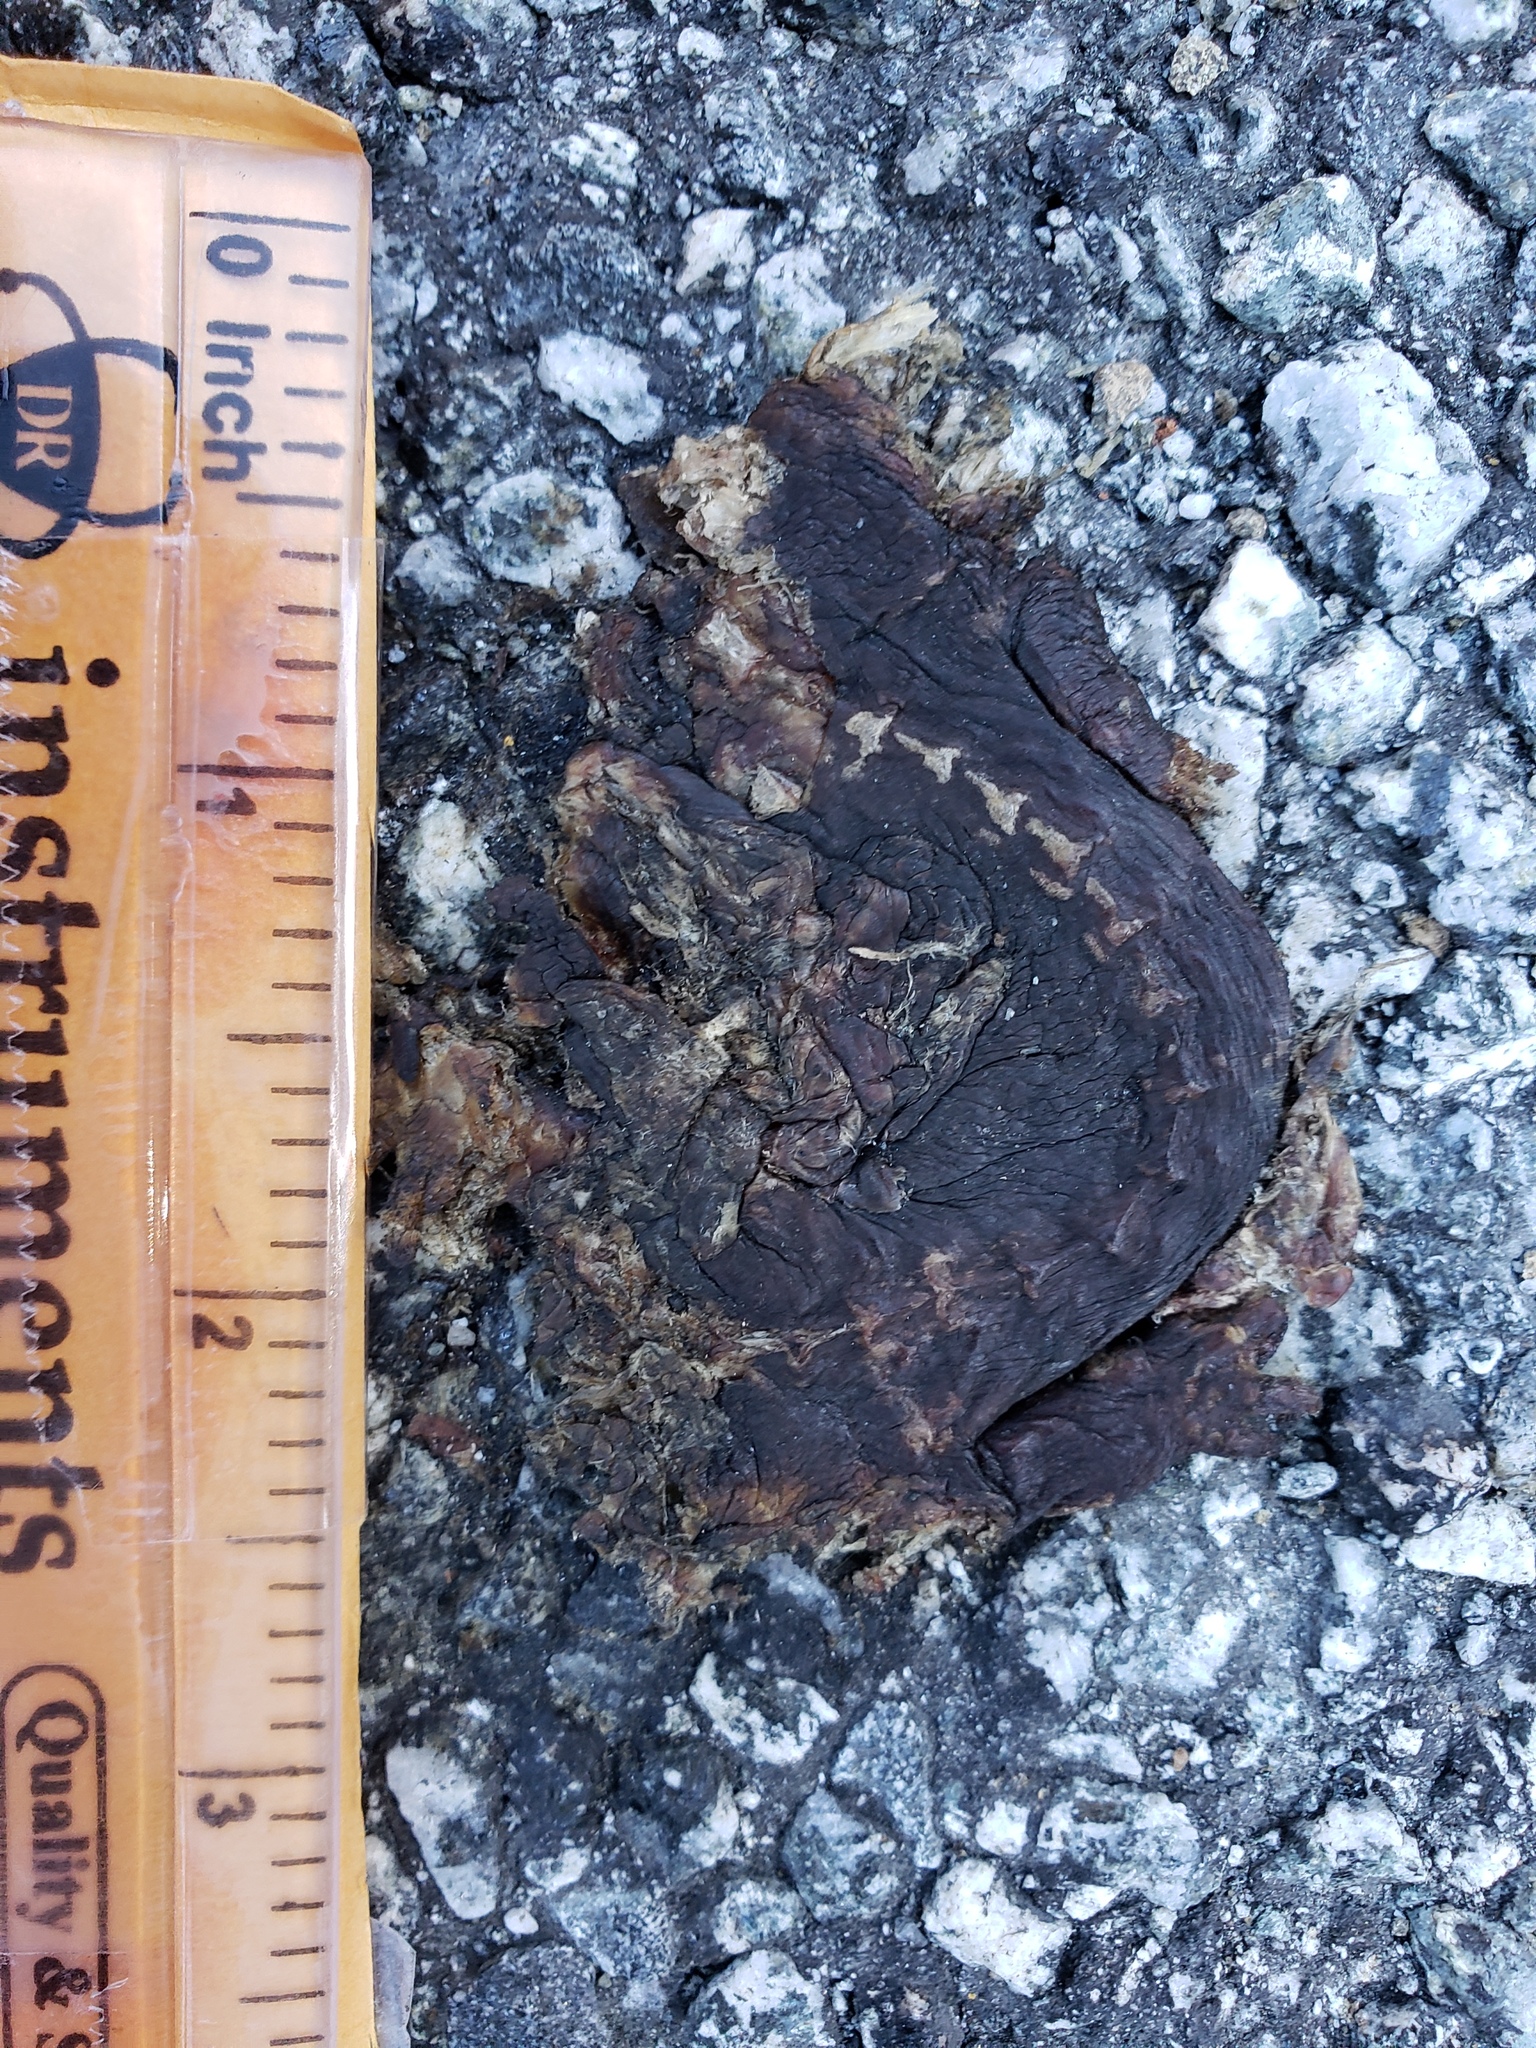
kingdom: Animalia
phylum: Chordata
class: Amphibia
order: Caudata
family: Salamandridae
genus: Taricha
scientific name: Taricha
